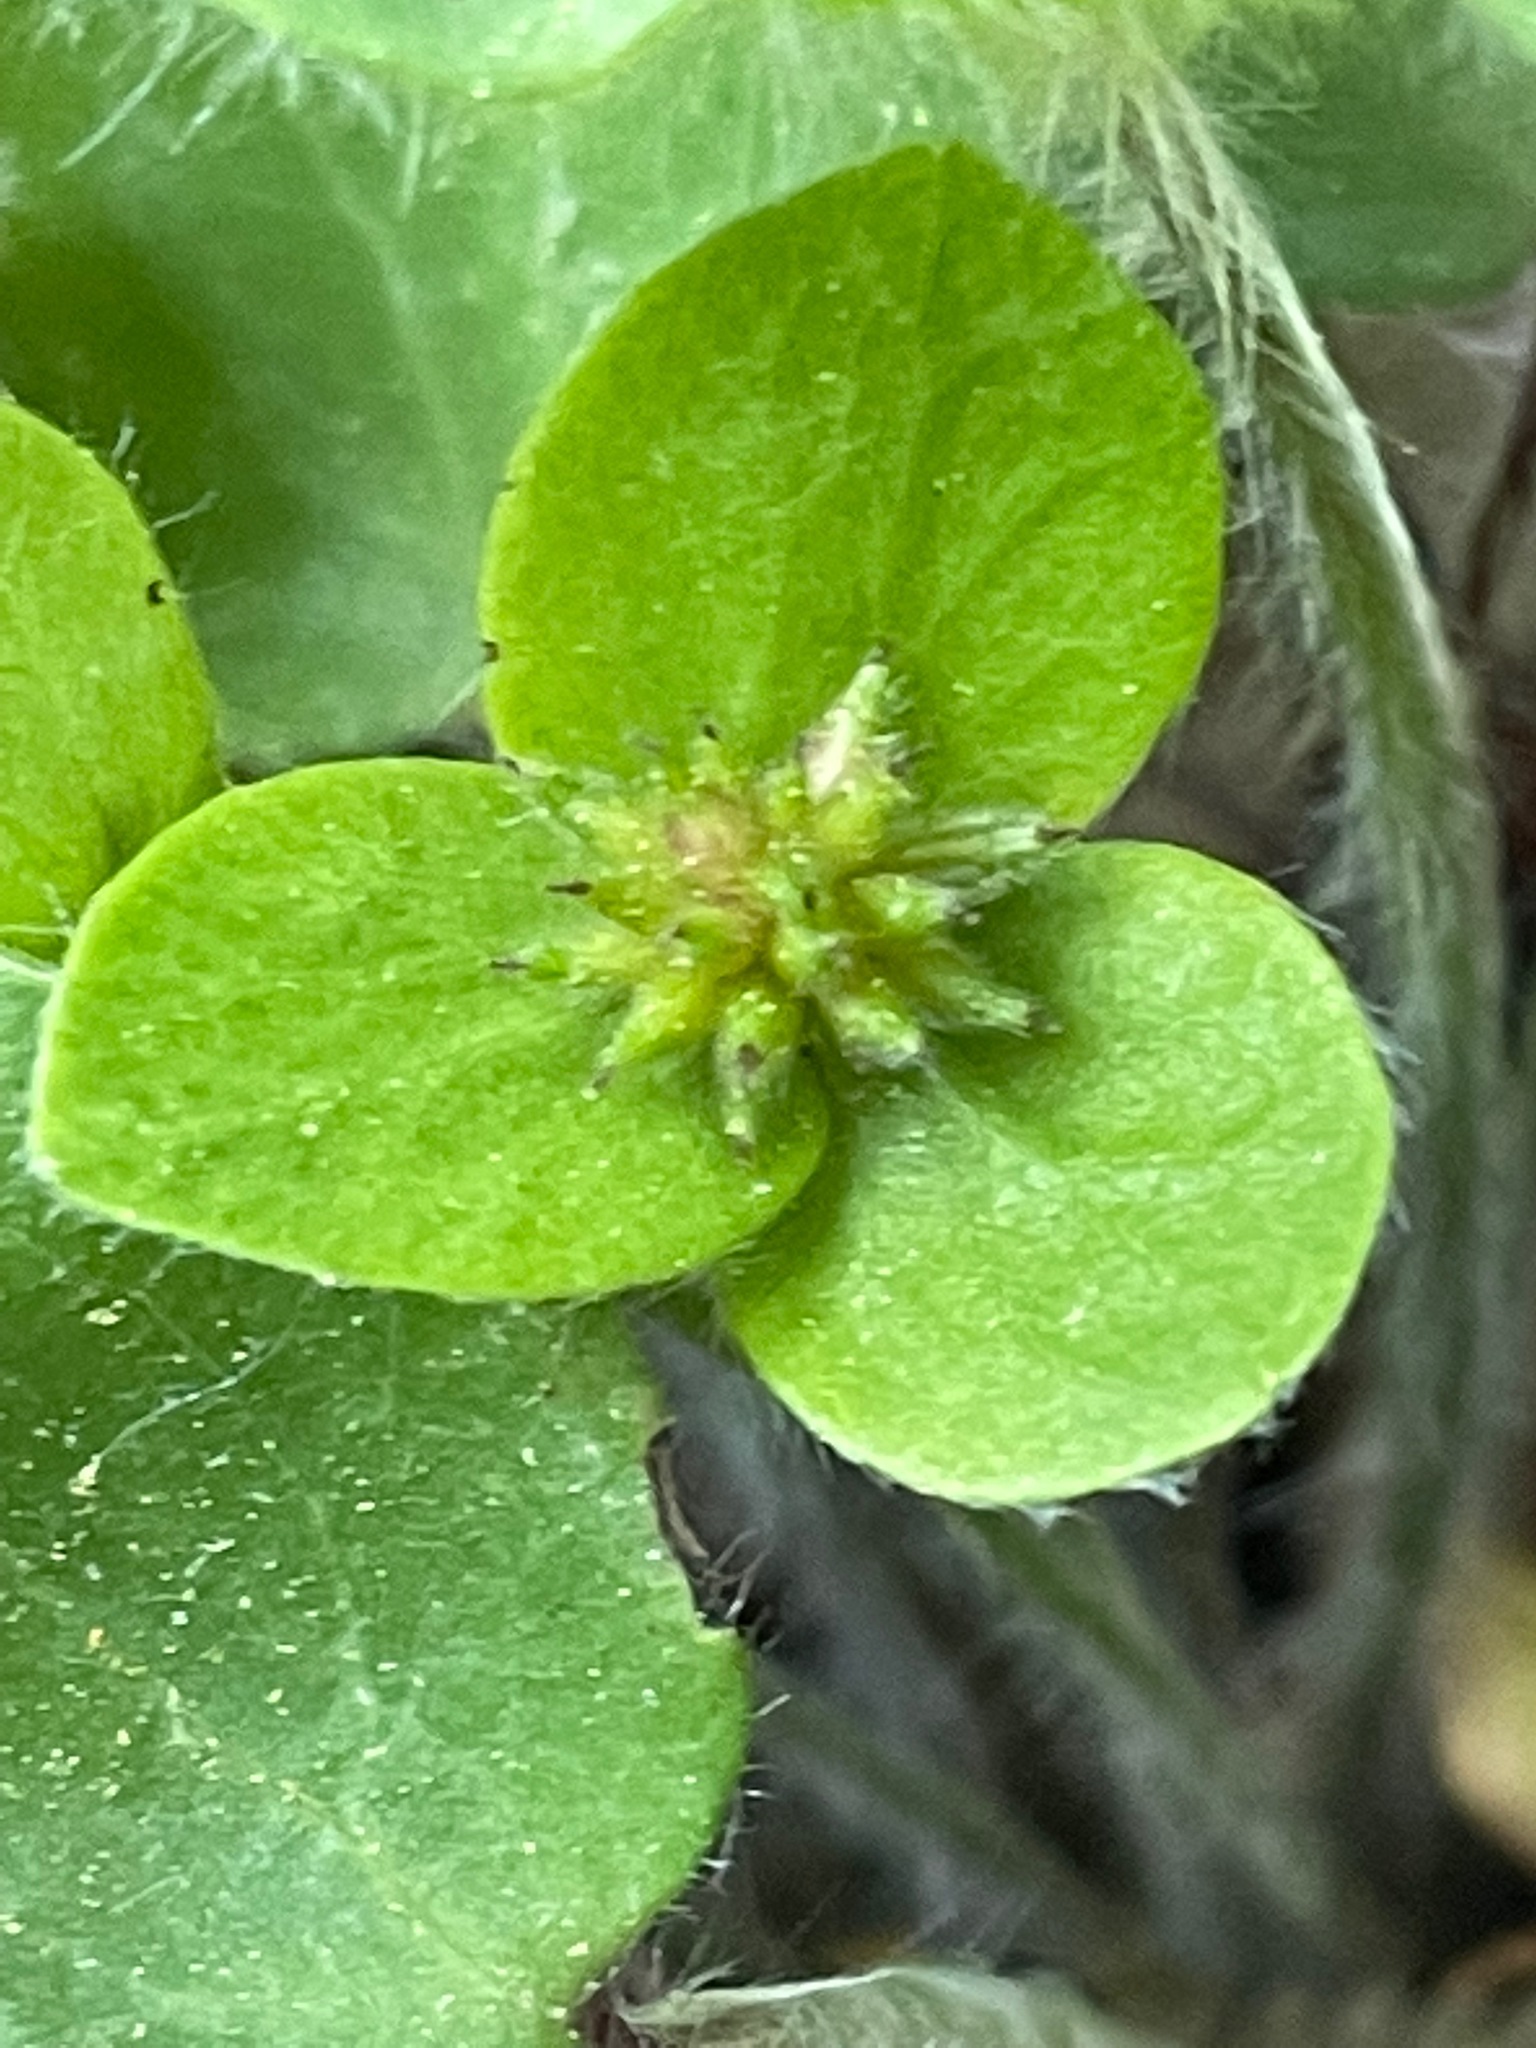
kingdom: Plantae
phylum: Tracheophyta
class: Magnoliopsida
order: Ranunculales
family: Ranunculaceae
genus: Hepatica
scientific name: Hepatica americana
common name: American hepatica
